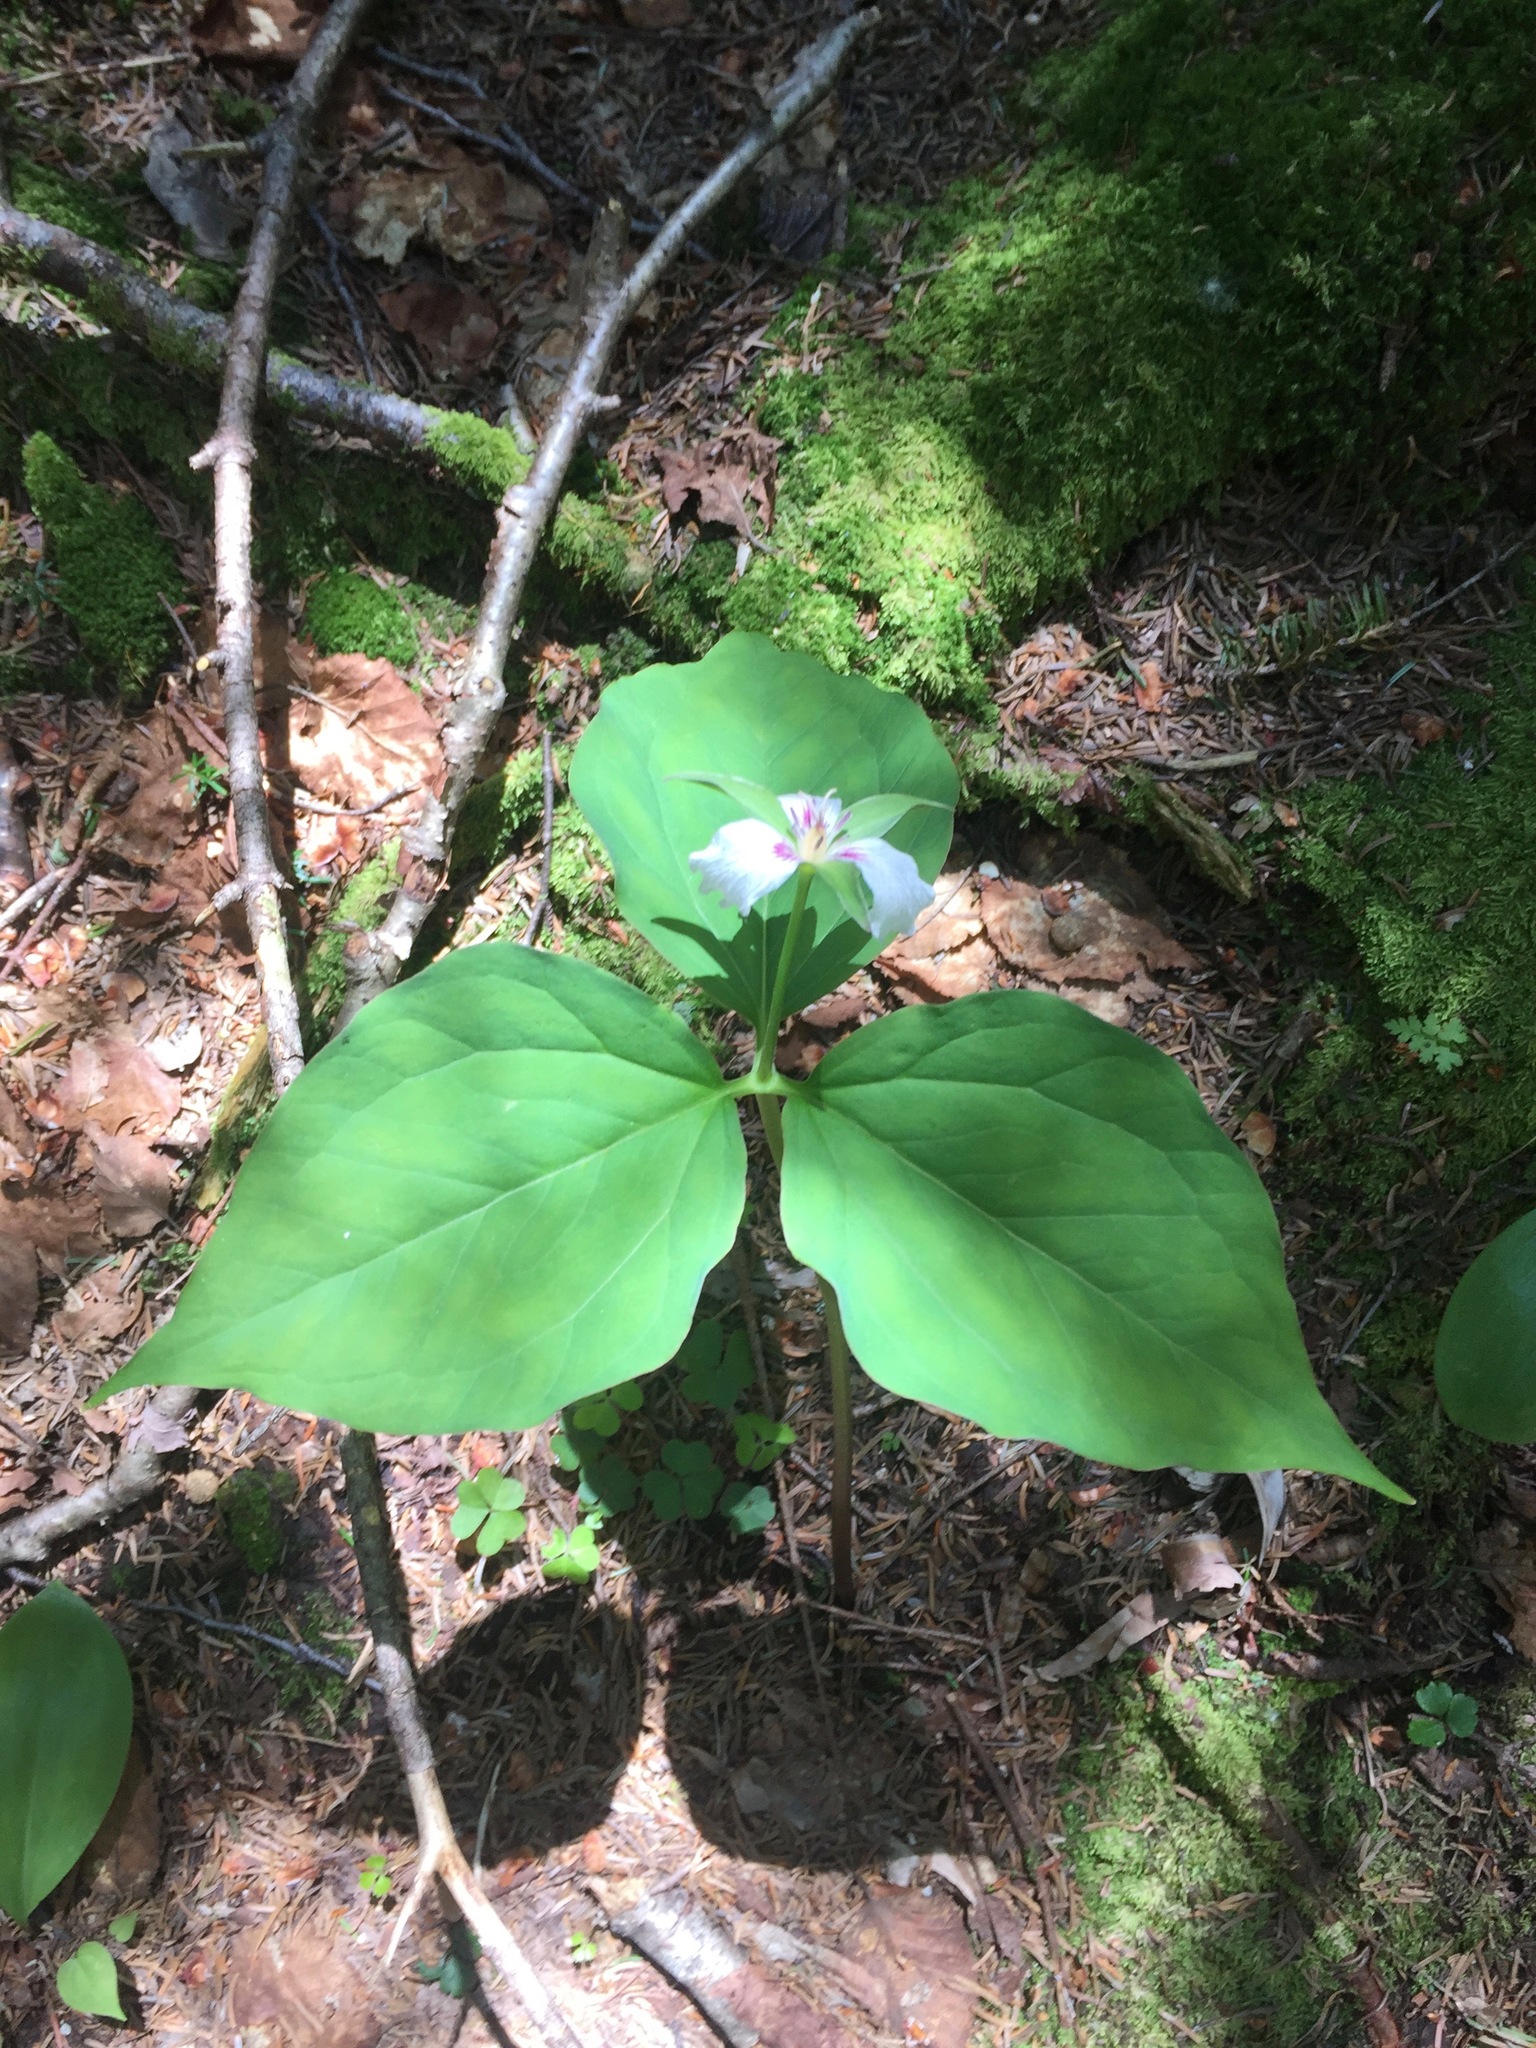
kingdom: Plantae
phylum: Tracheophyta
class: Liliopsida
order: Liliales
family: Melanthiaceae
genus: Trillium
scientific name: Trillium undulatum
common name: Paint trillium
